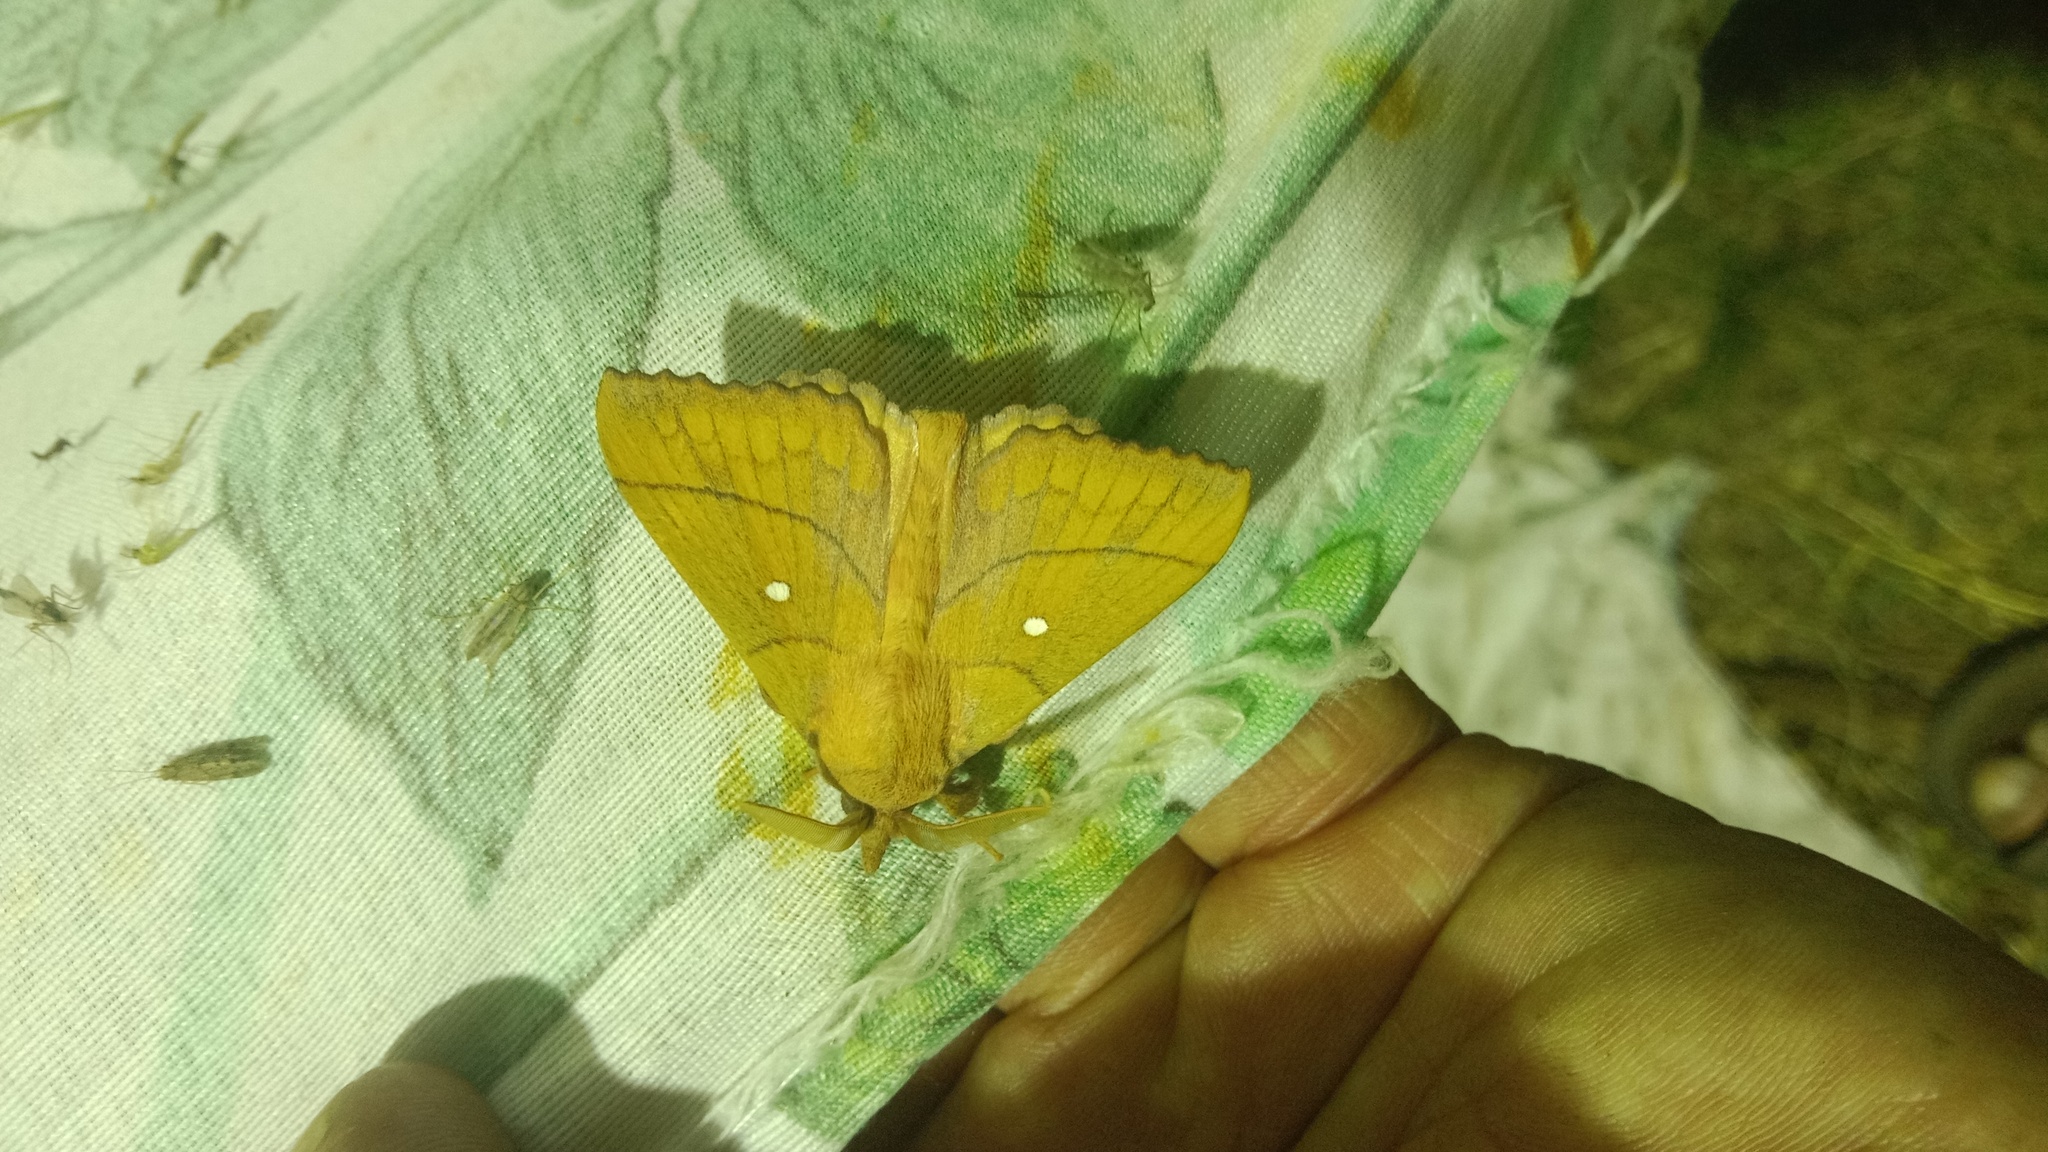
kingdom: Animalia
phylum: Arthropoda
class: Insecta
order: Lepidoptera
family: Lasiocampidae
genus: Odonestis
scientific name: Odonestis pruni
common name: Plum lappet
